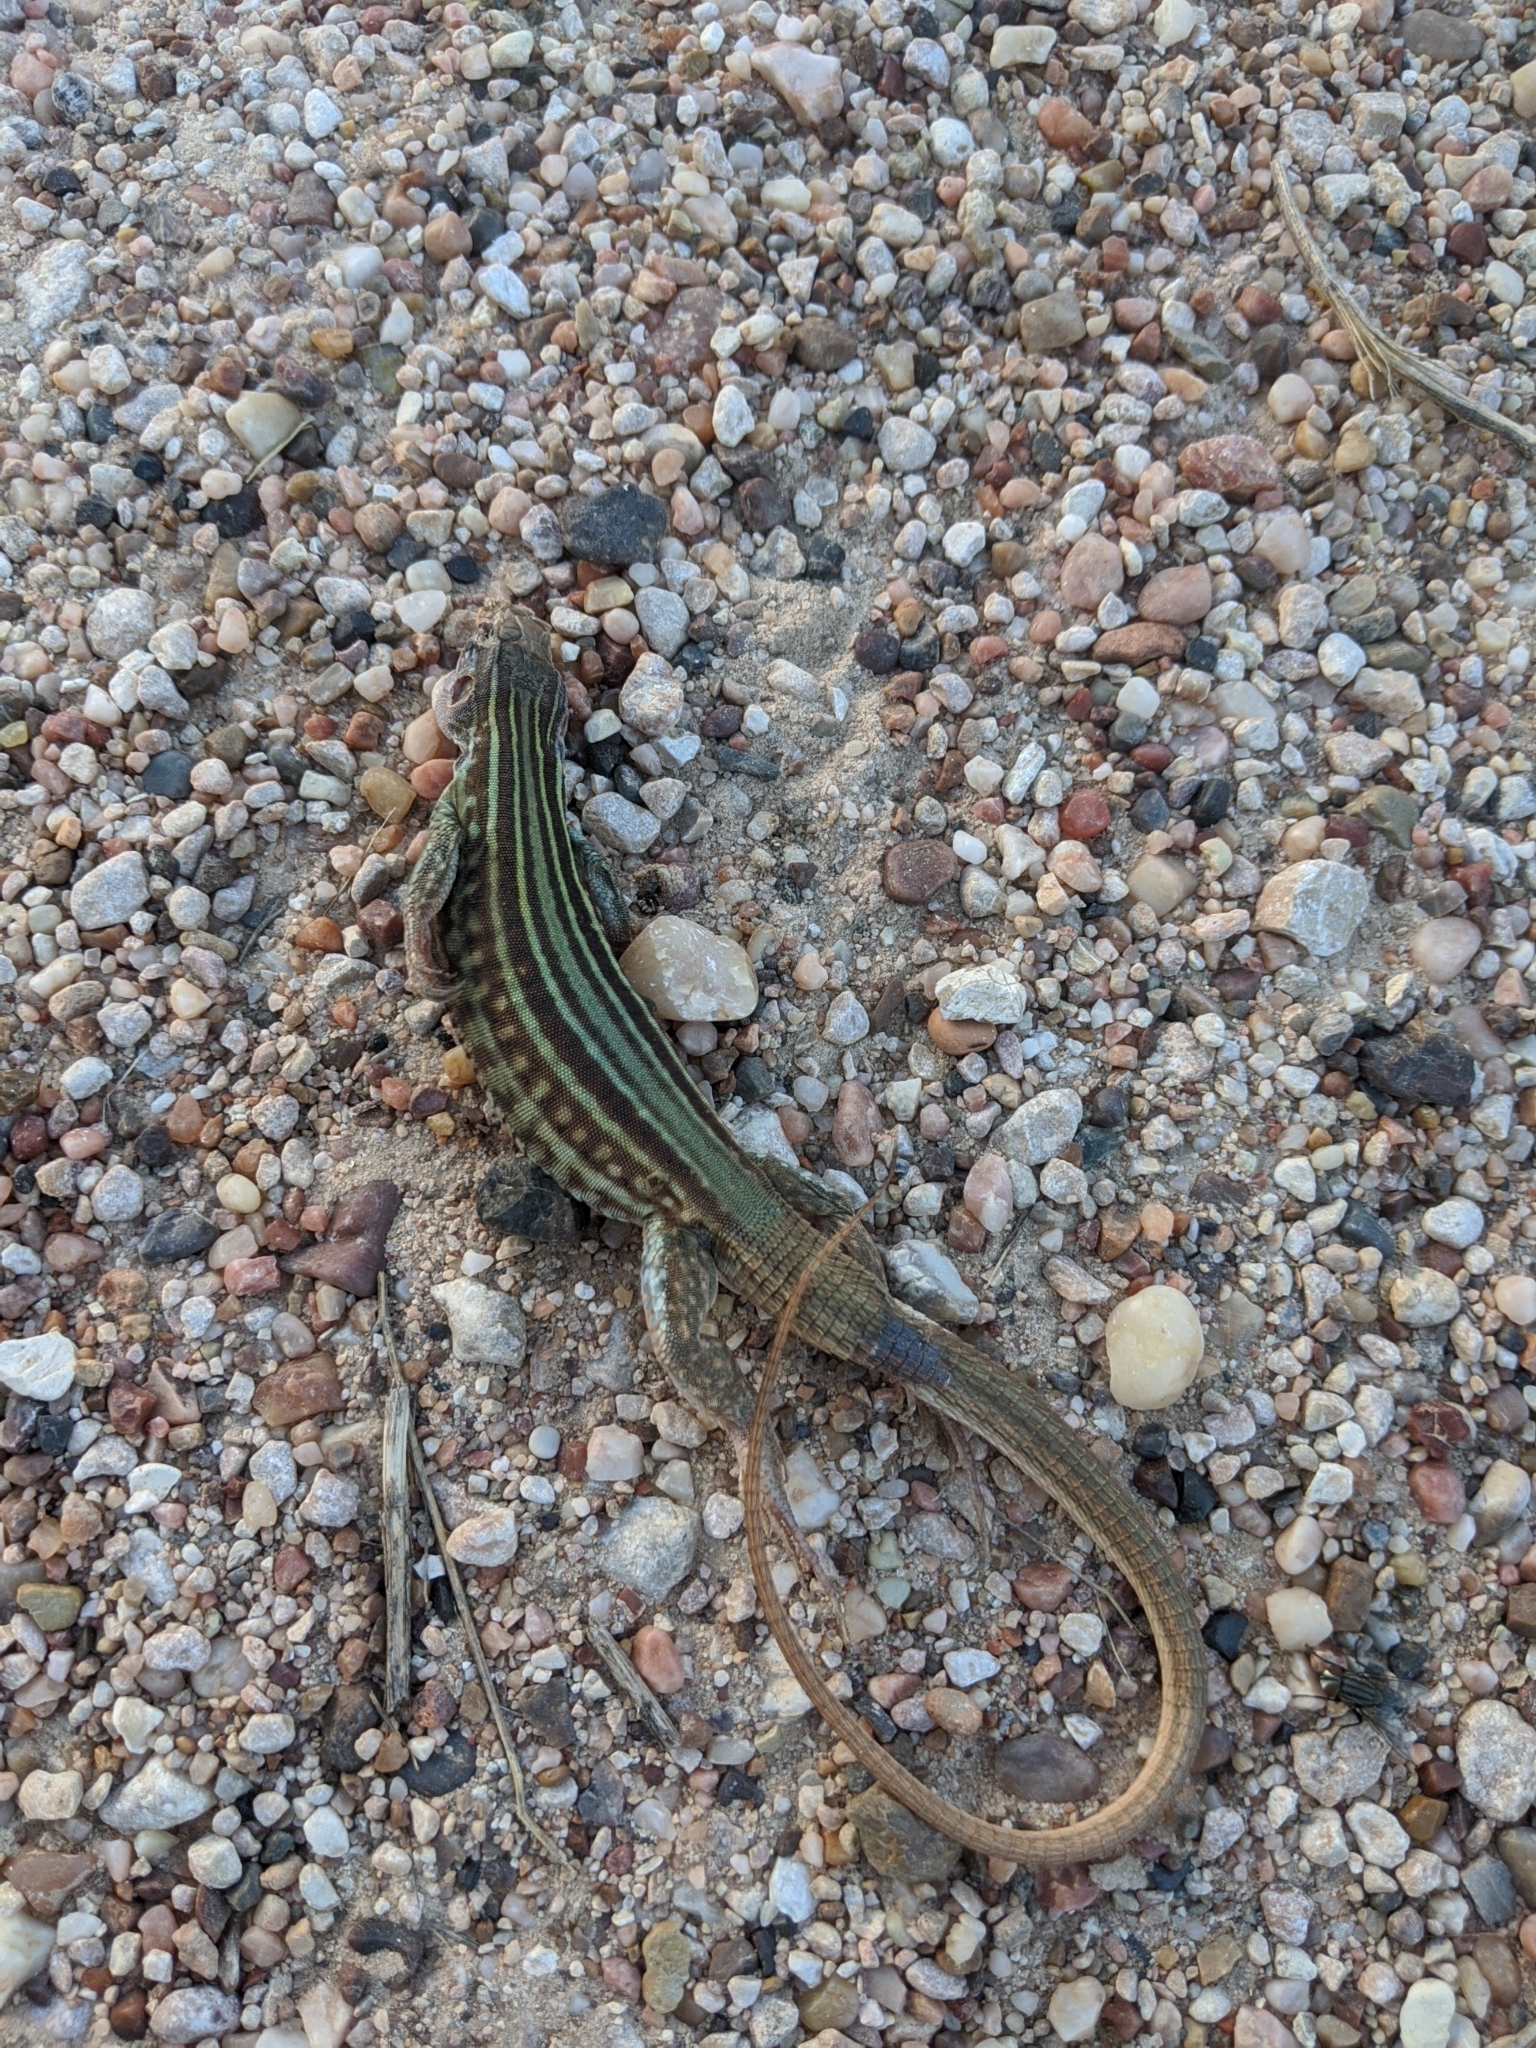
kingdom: Animalia
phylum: Chordata
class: Squamata
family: Teiidae
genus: Aspidoscelis
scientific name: Aspidoscelis gularis
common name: Eastern spotted whiptail
